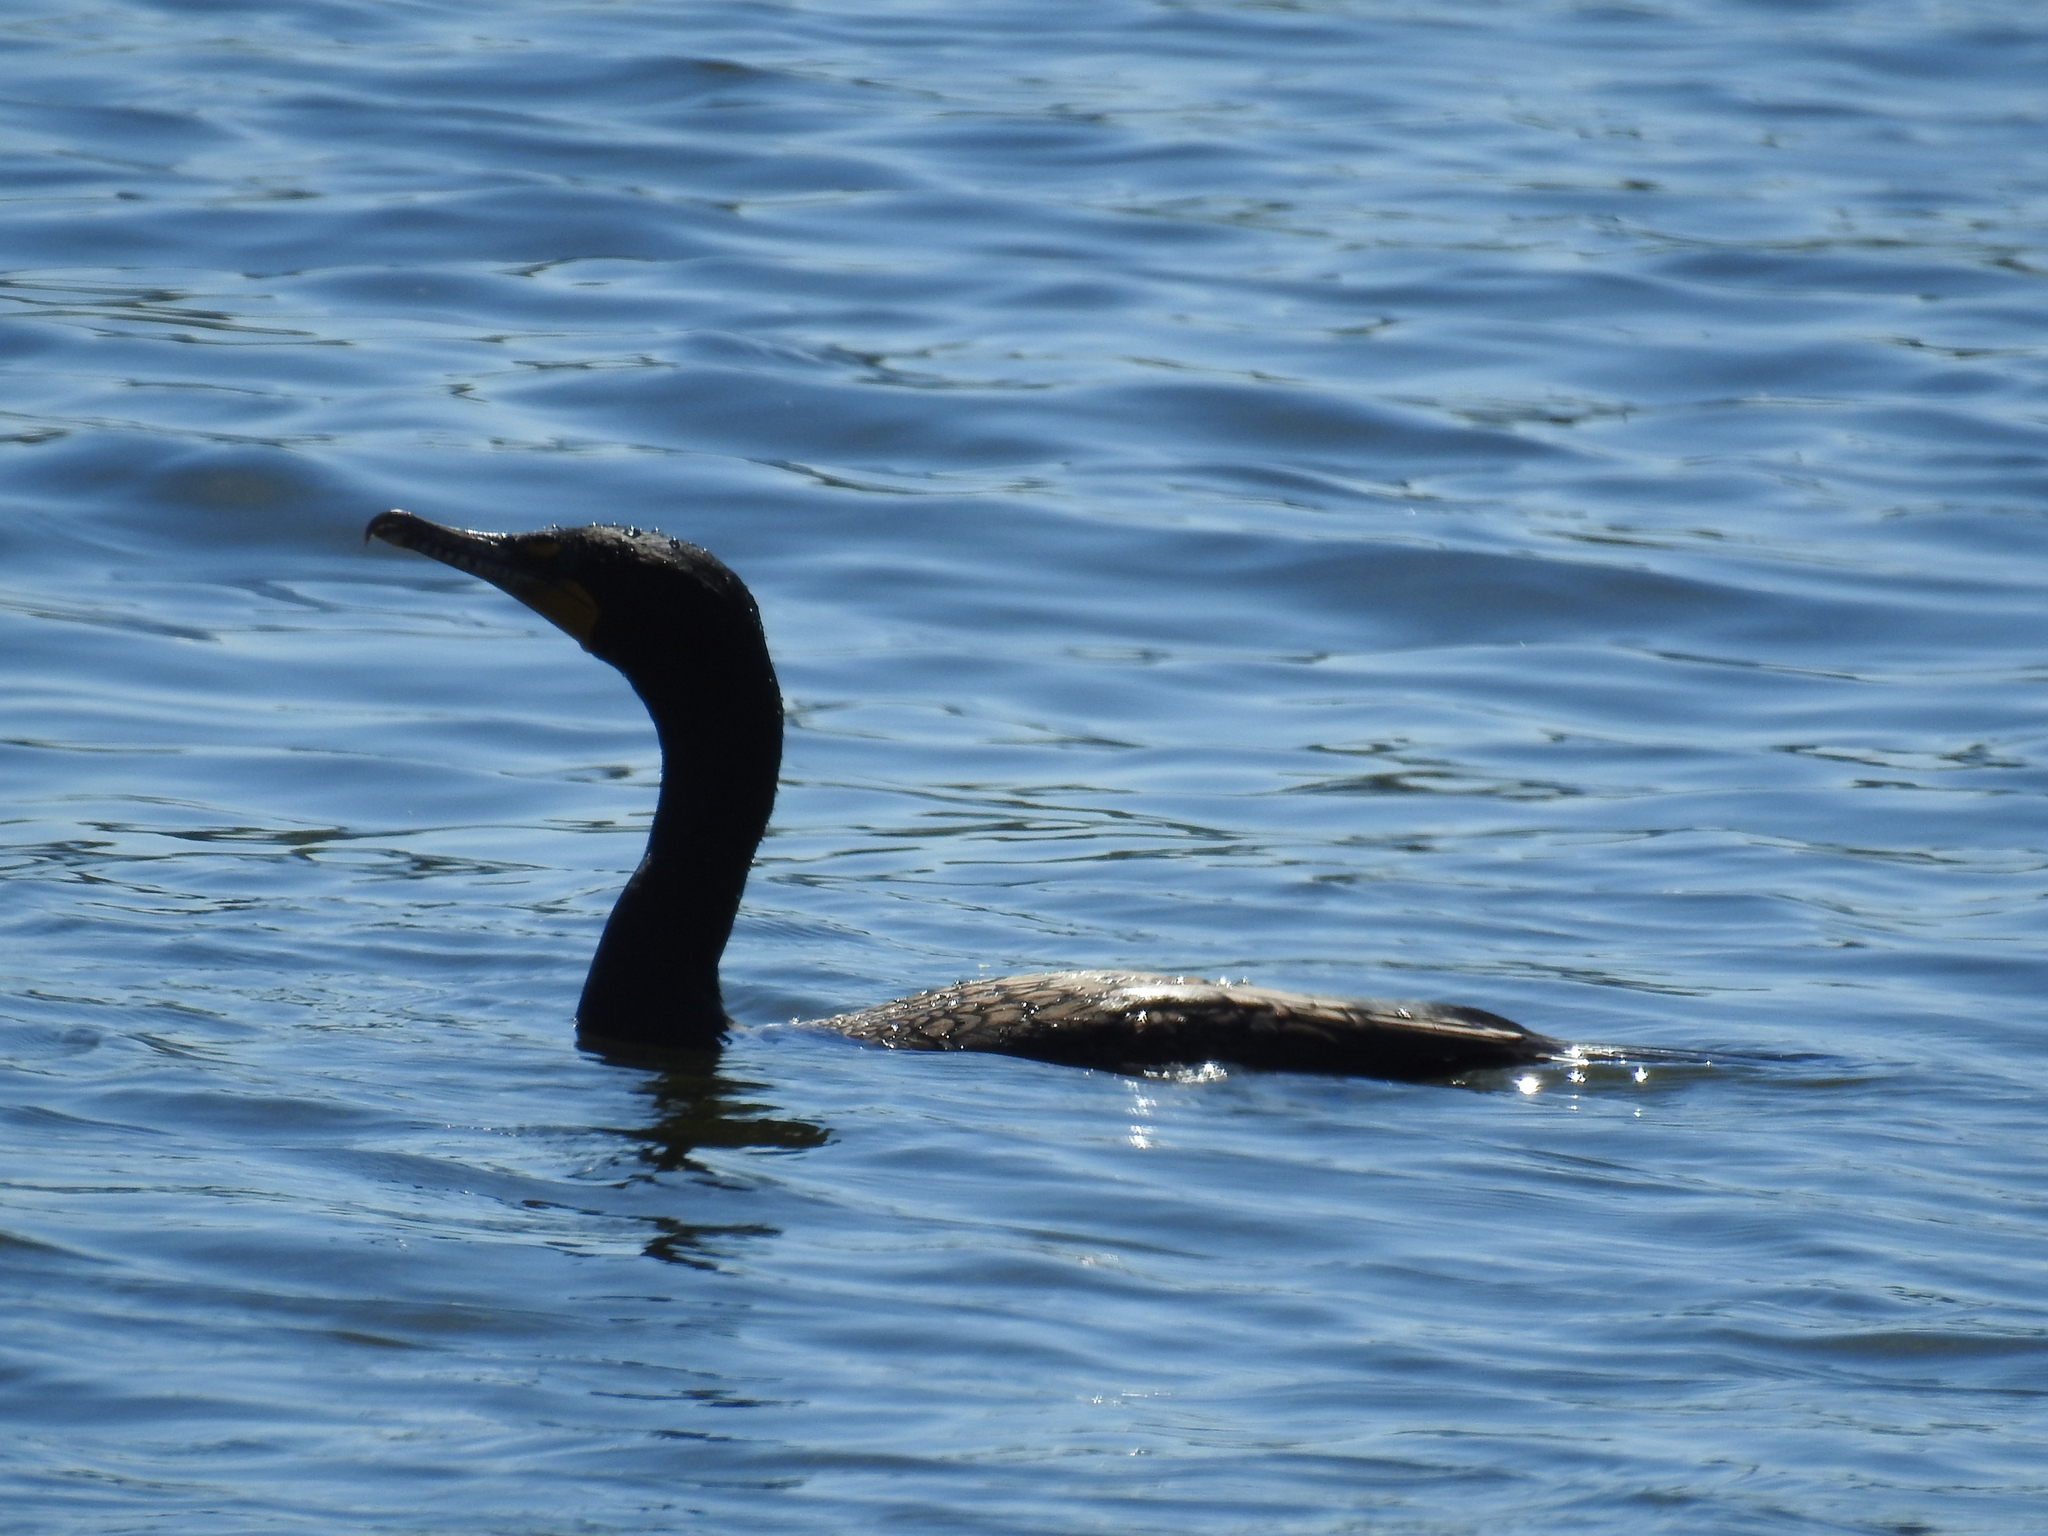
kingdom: Animalia
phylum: Chordata
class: Aves
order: Suliformes
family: Phalacrocoracidae
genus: Phalacrocorax
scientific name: Phalacrocorax auritus
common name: Double-crested cormorant
